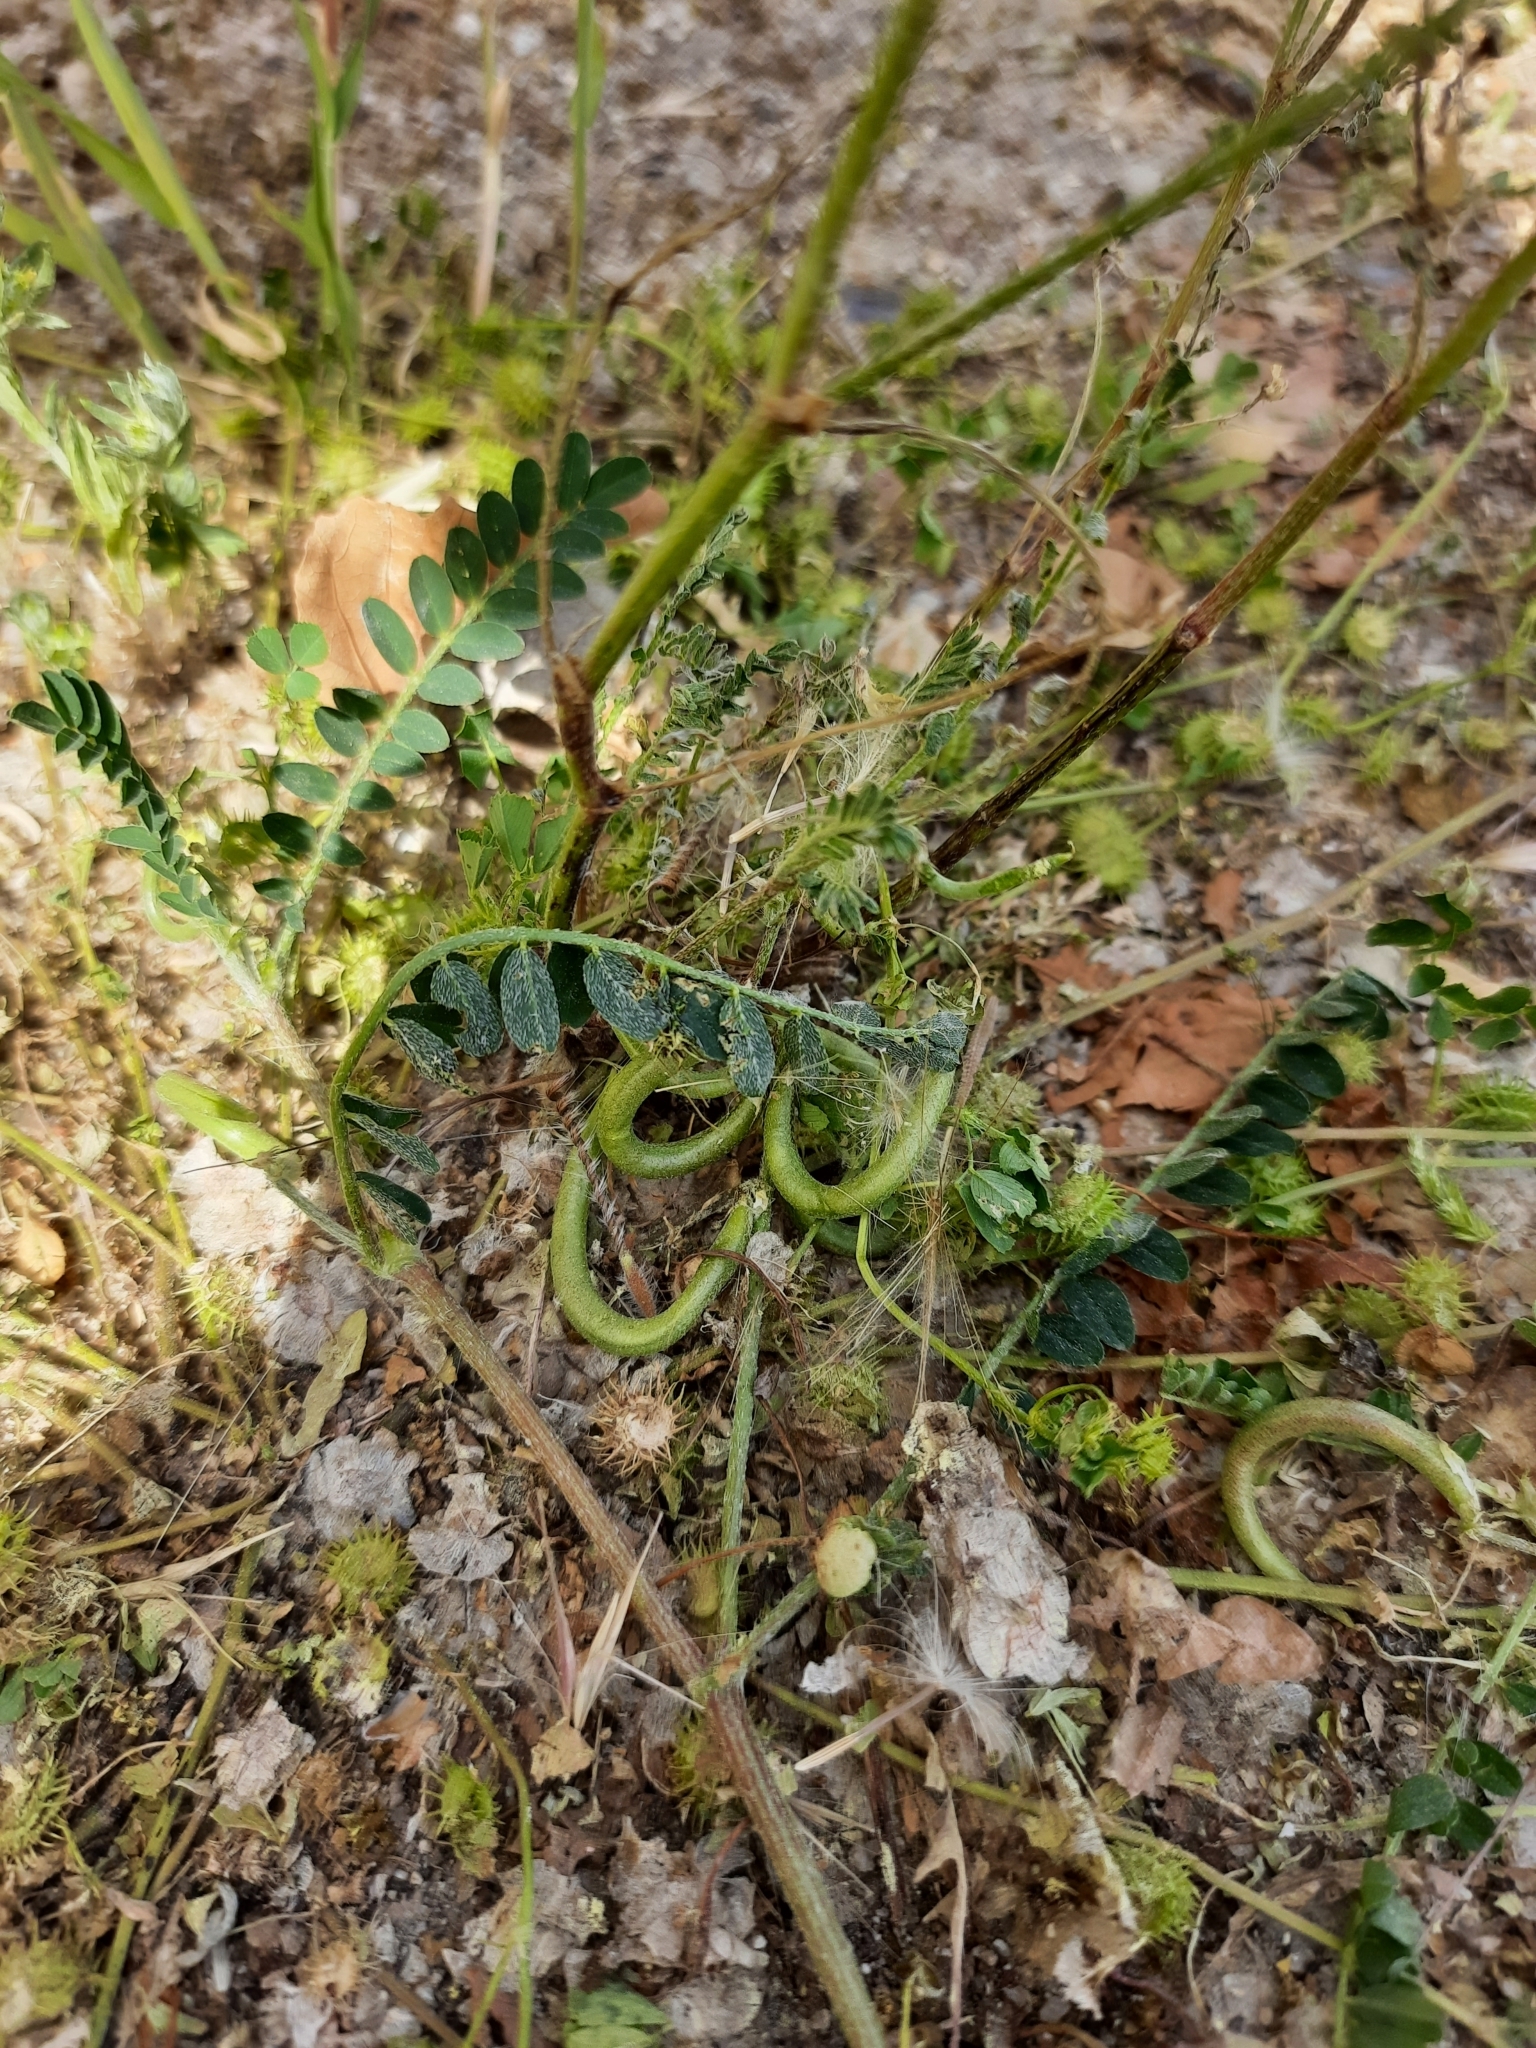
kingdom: Plantae
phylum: Tracheophyta
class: Magnoliopsida
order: Fabales
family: Fabaceae
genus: Astragalus
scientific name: Astragalus hamosus
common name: European milkvetch
